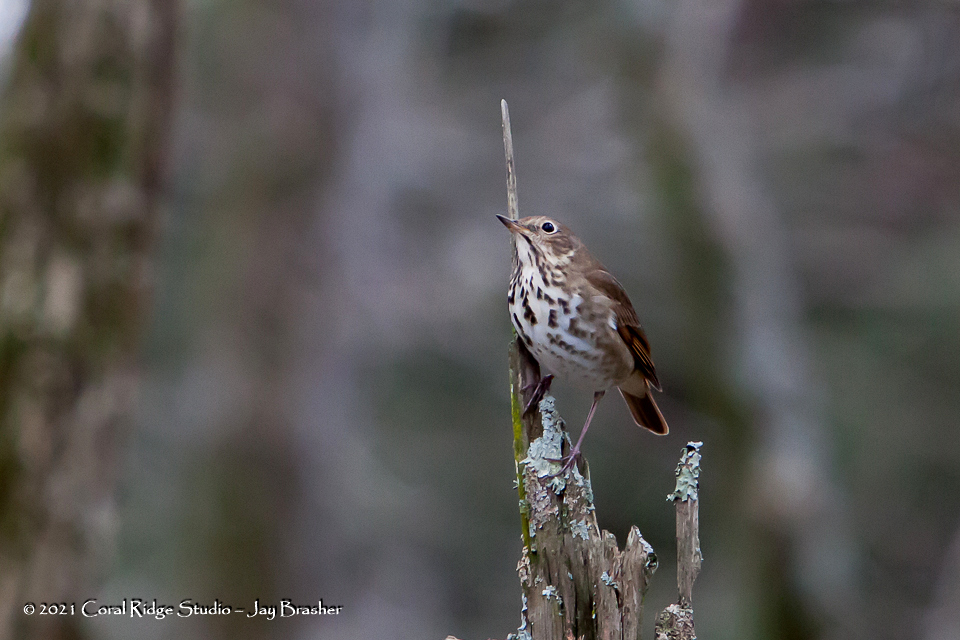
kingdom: Animalia
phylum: Chordata
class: Aves
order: Passeriformes
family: Turdidae
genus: Catharus
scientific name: Catharus guttatus
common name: Hermit thrush
